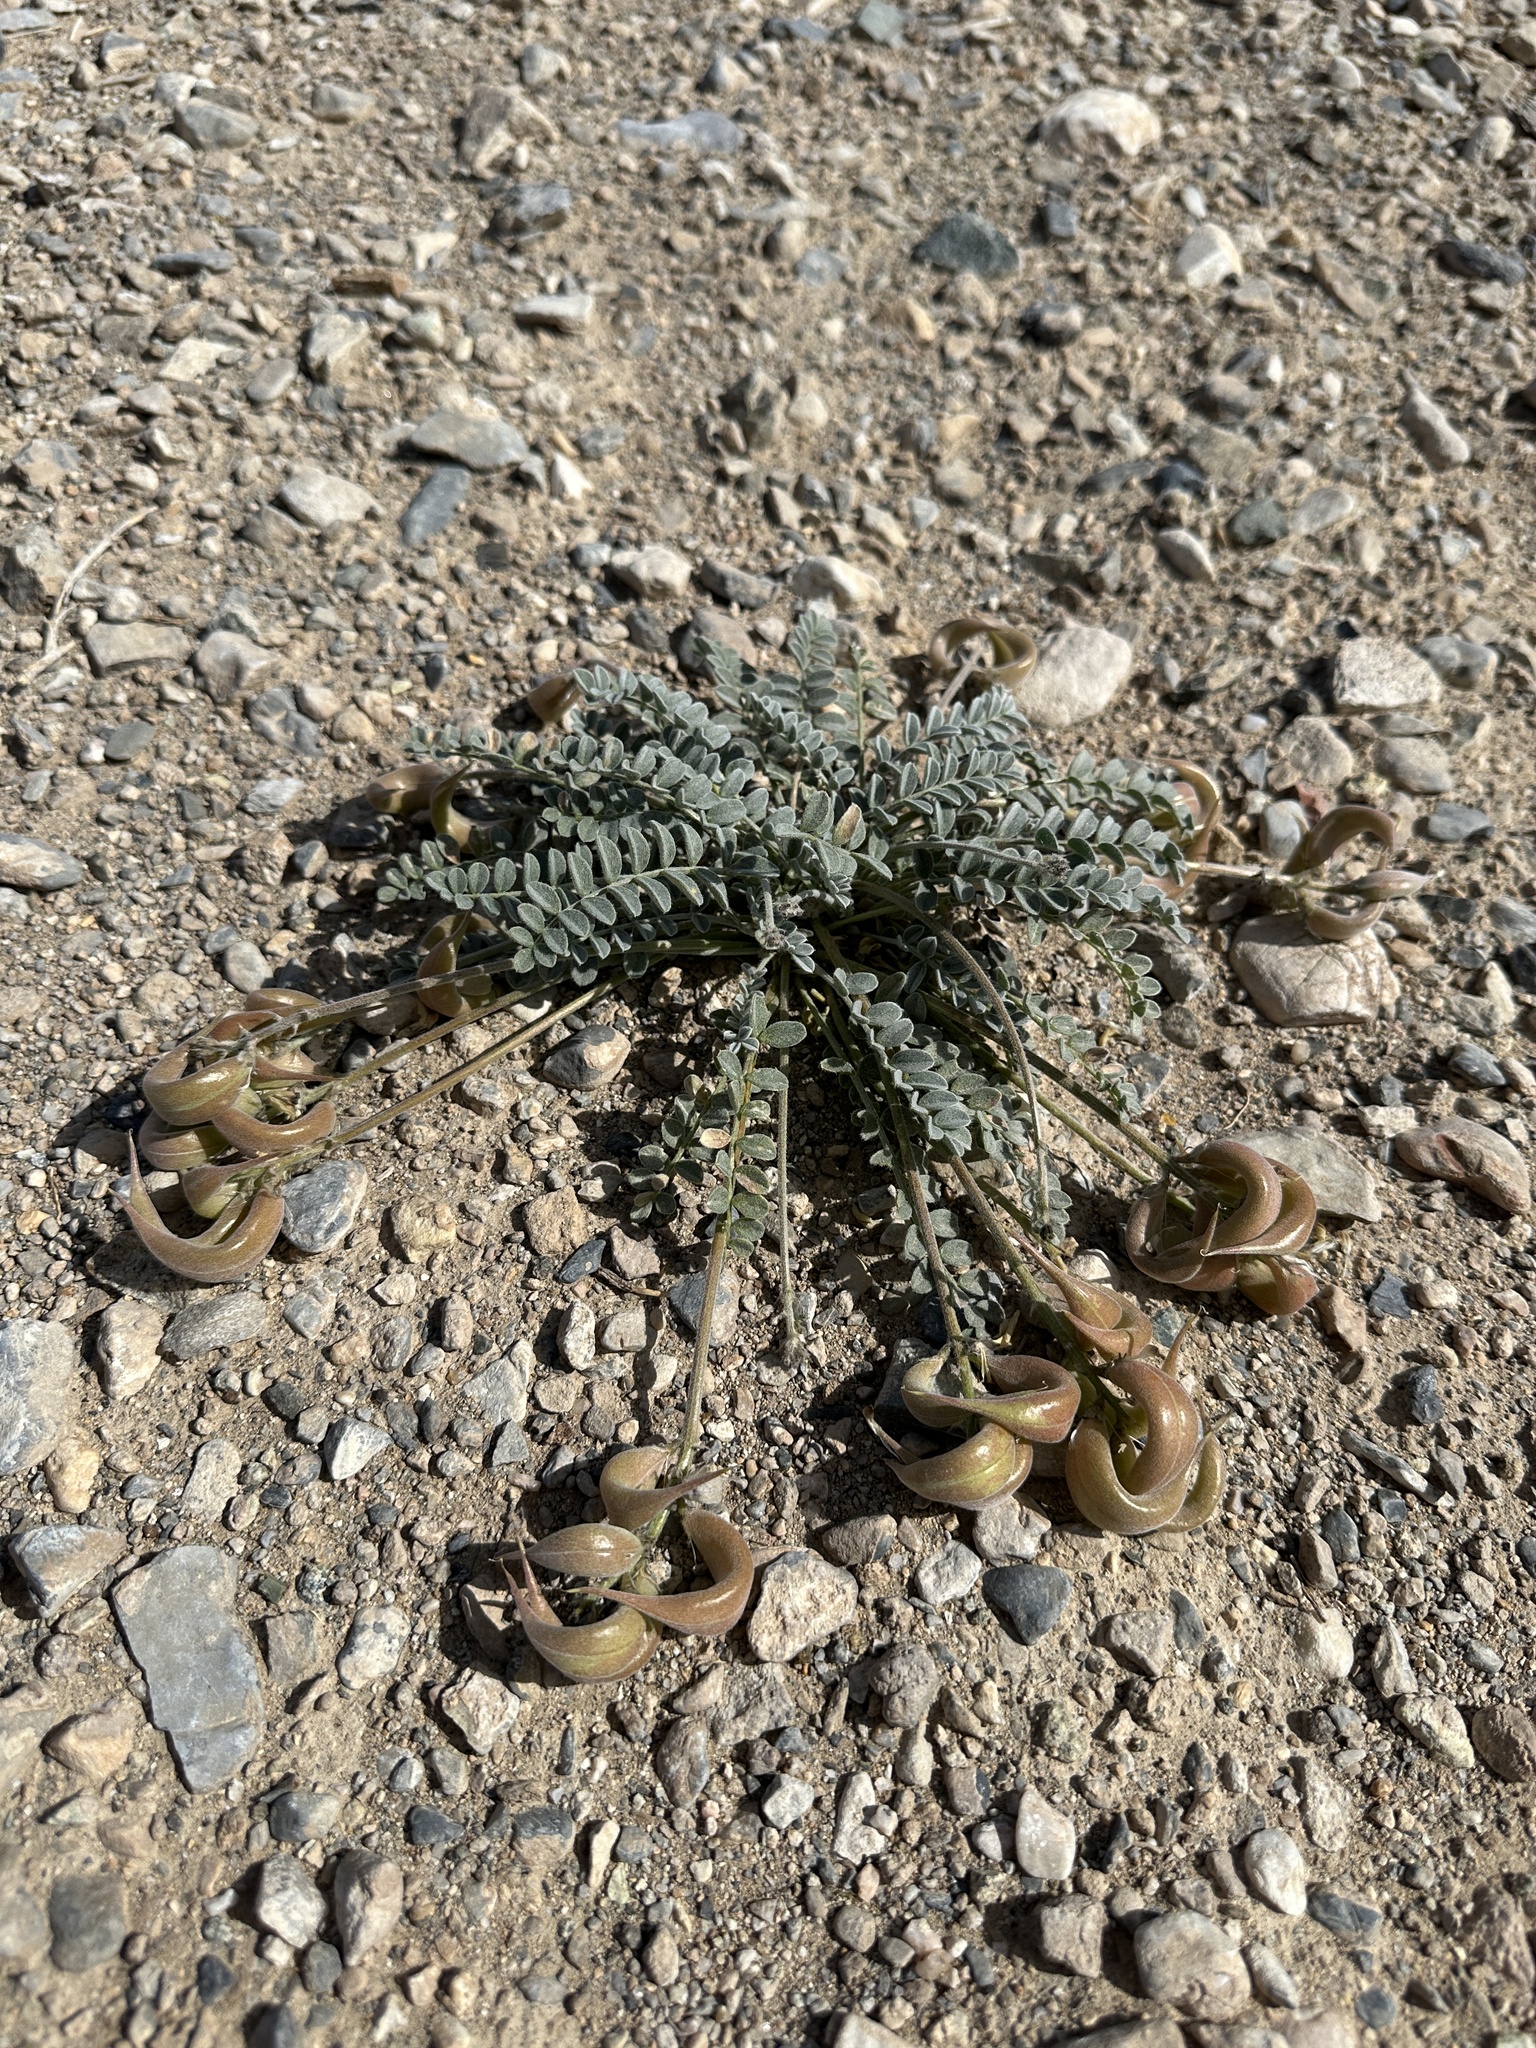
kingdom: Plantae
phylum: Tracheophyta
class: Magnoliopsida
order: Fabales
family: Fabaceae
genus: Astragalus
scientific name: Astragalus tidestromii
